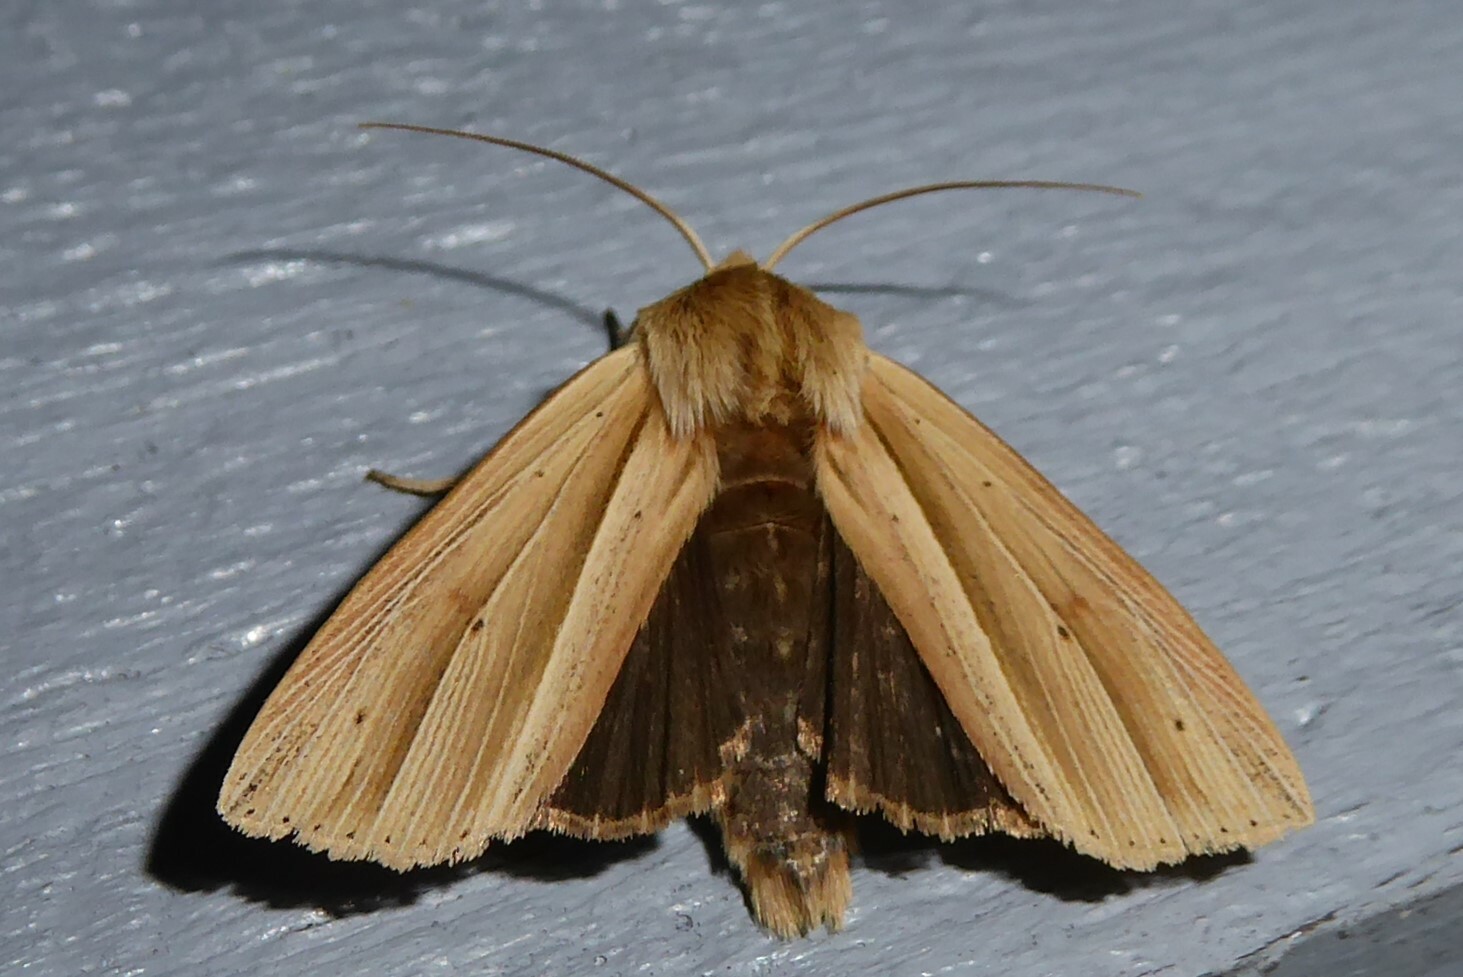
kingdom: Animalia
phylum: Arthropoda
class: Insecta
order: Lepidoptera
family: Noctuidae
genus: Ichneutica
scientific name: Ichneutica sulcana
